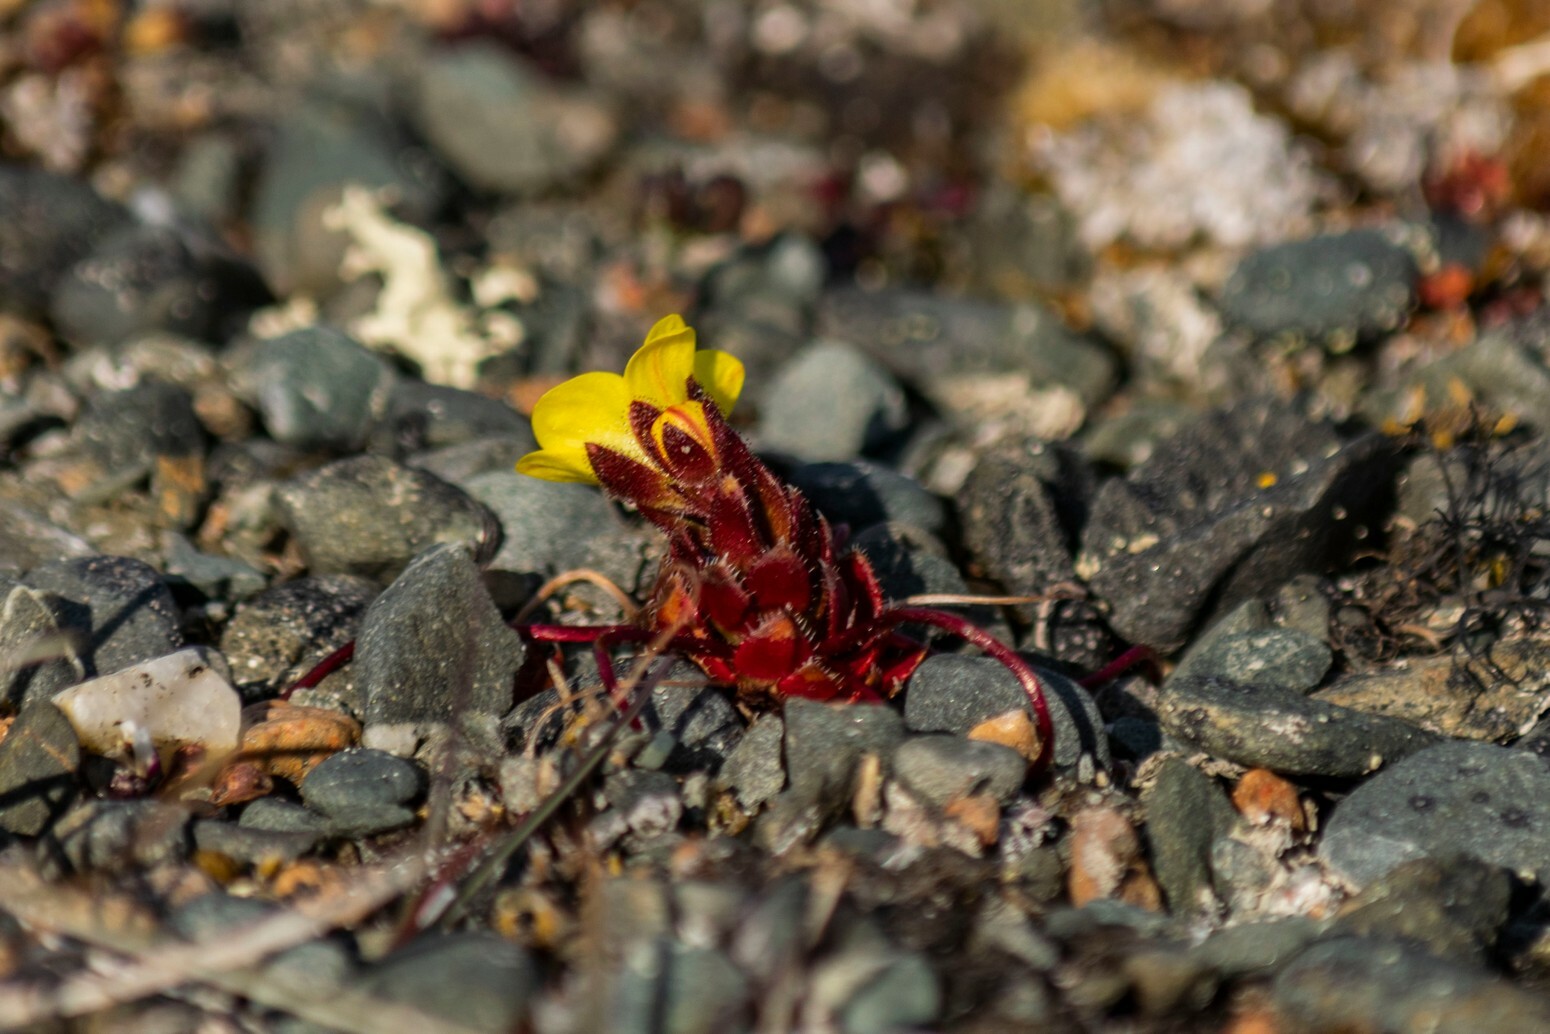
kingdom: Plantae
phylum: Tracheophyta
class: Magnoliopsida
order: Saxifragales
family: Saxifragaceae
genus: Saxifraga
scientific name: Saxifraga platysepala
